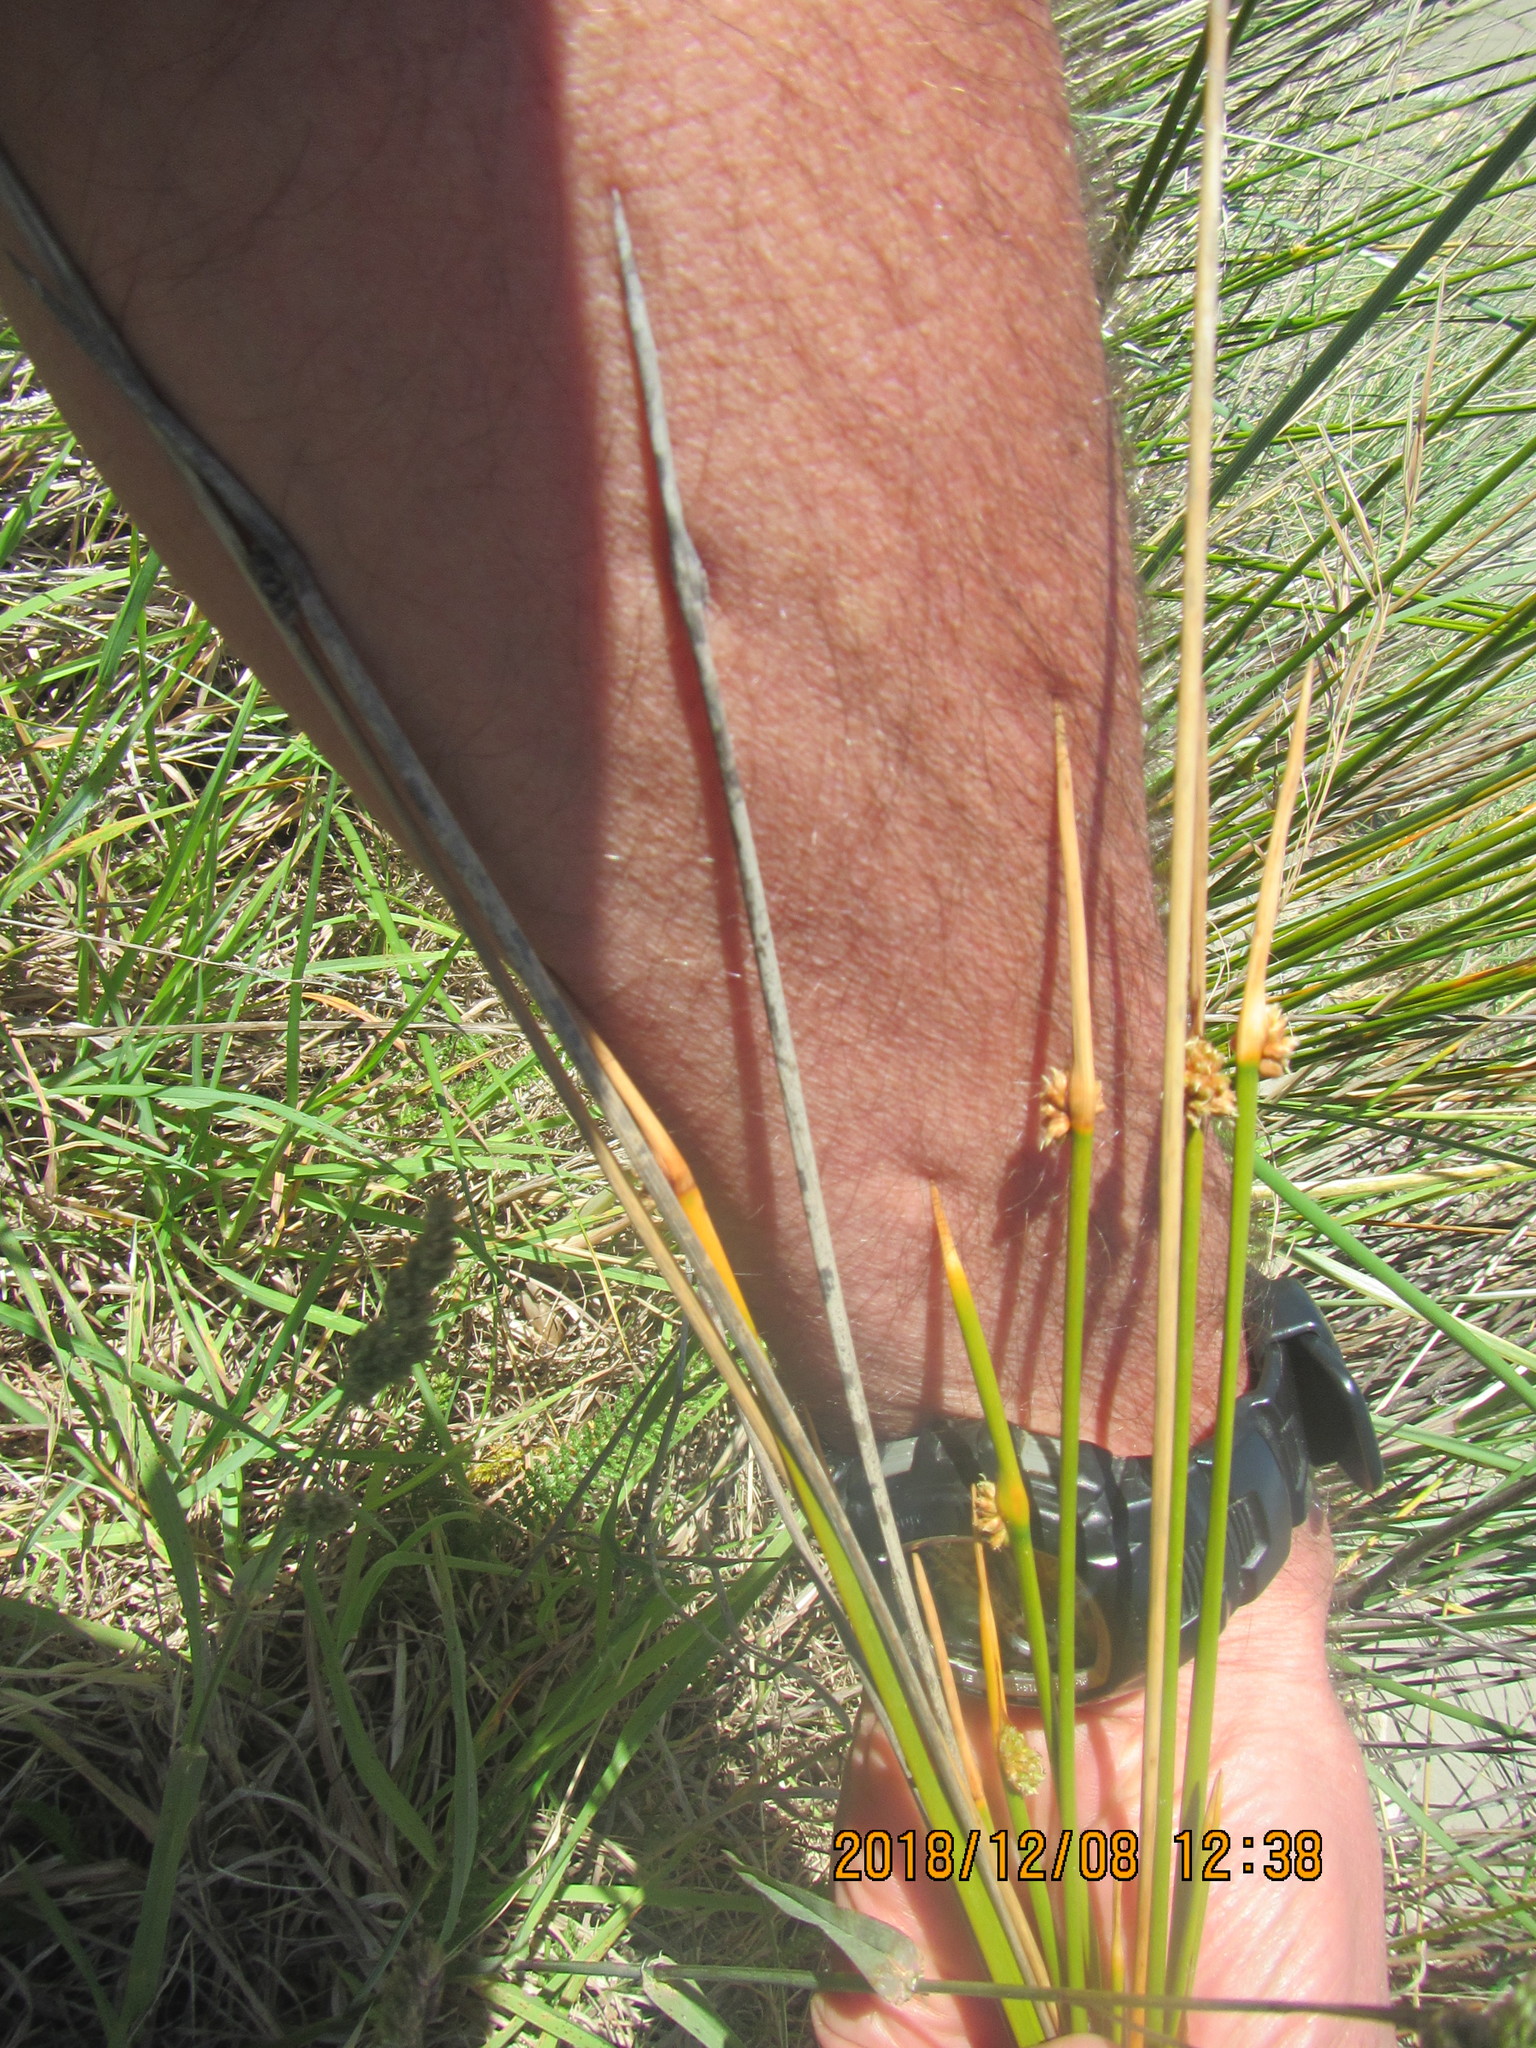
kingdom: Plantae
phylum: Tracheophyta
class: Liliopsida
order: Poales
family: Cyperaceae
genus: Ficinia
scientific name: Ficinia nodosa
